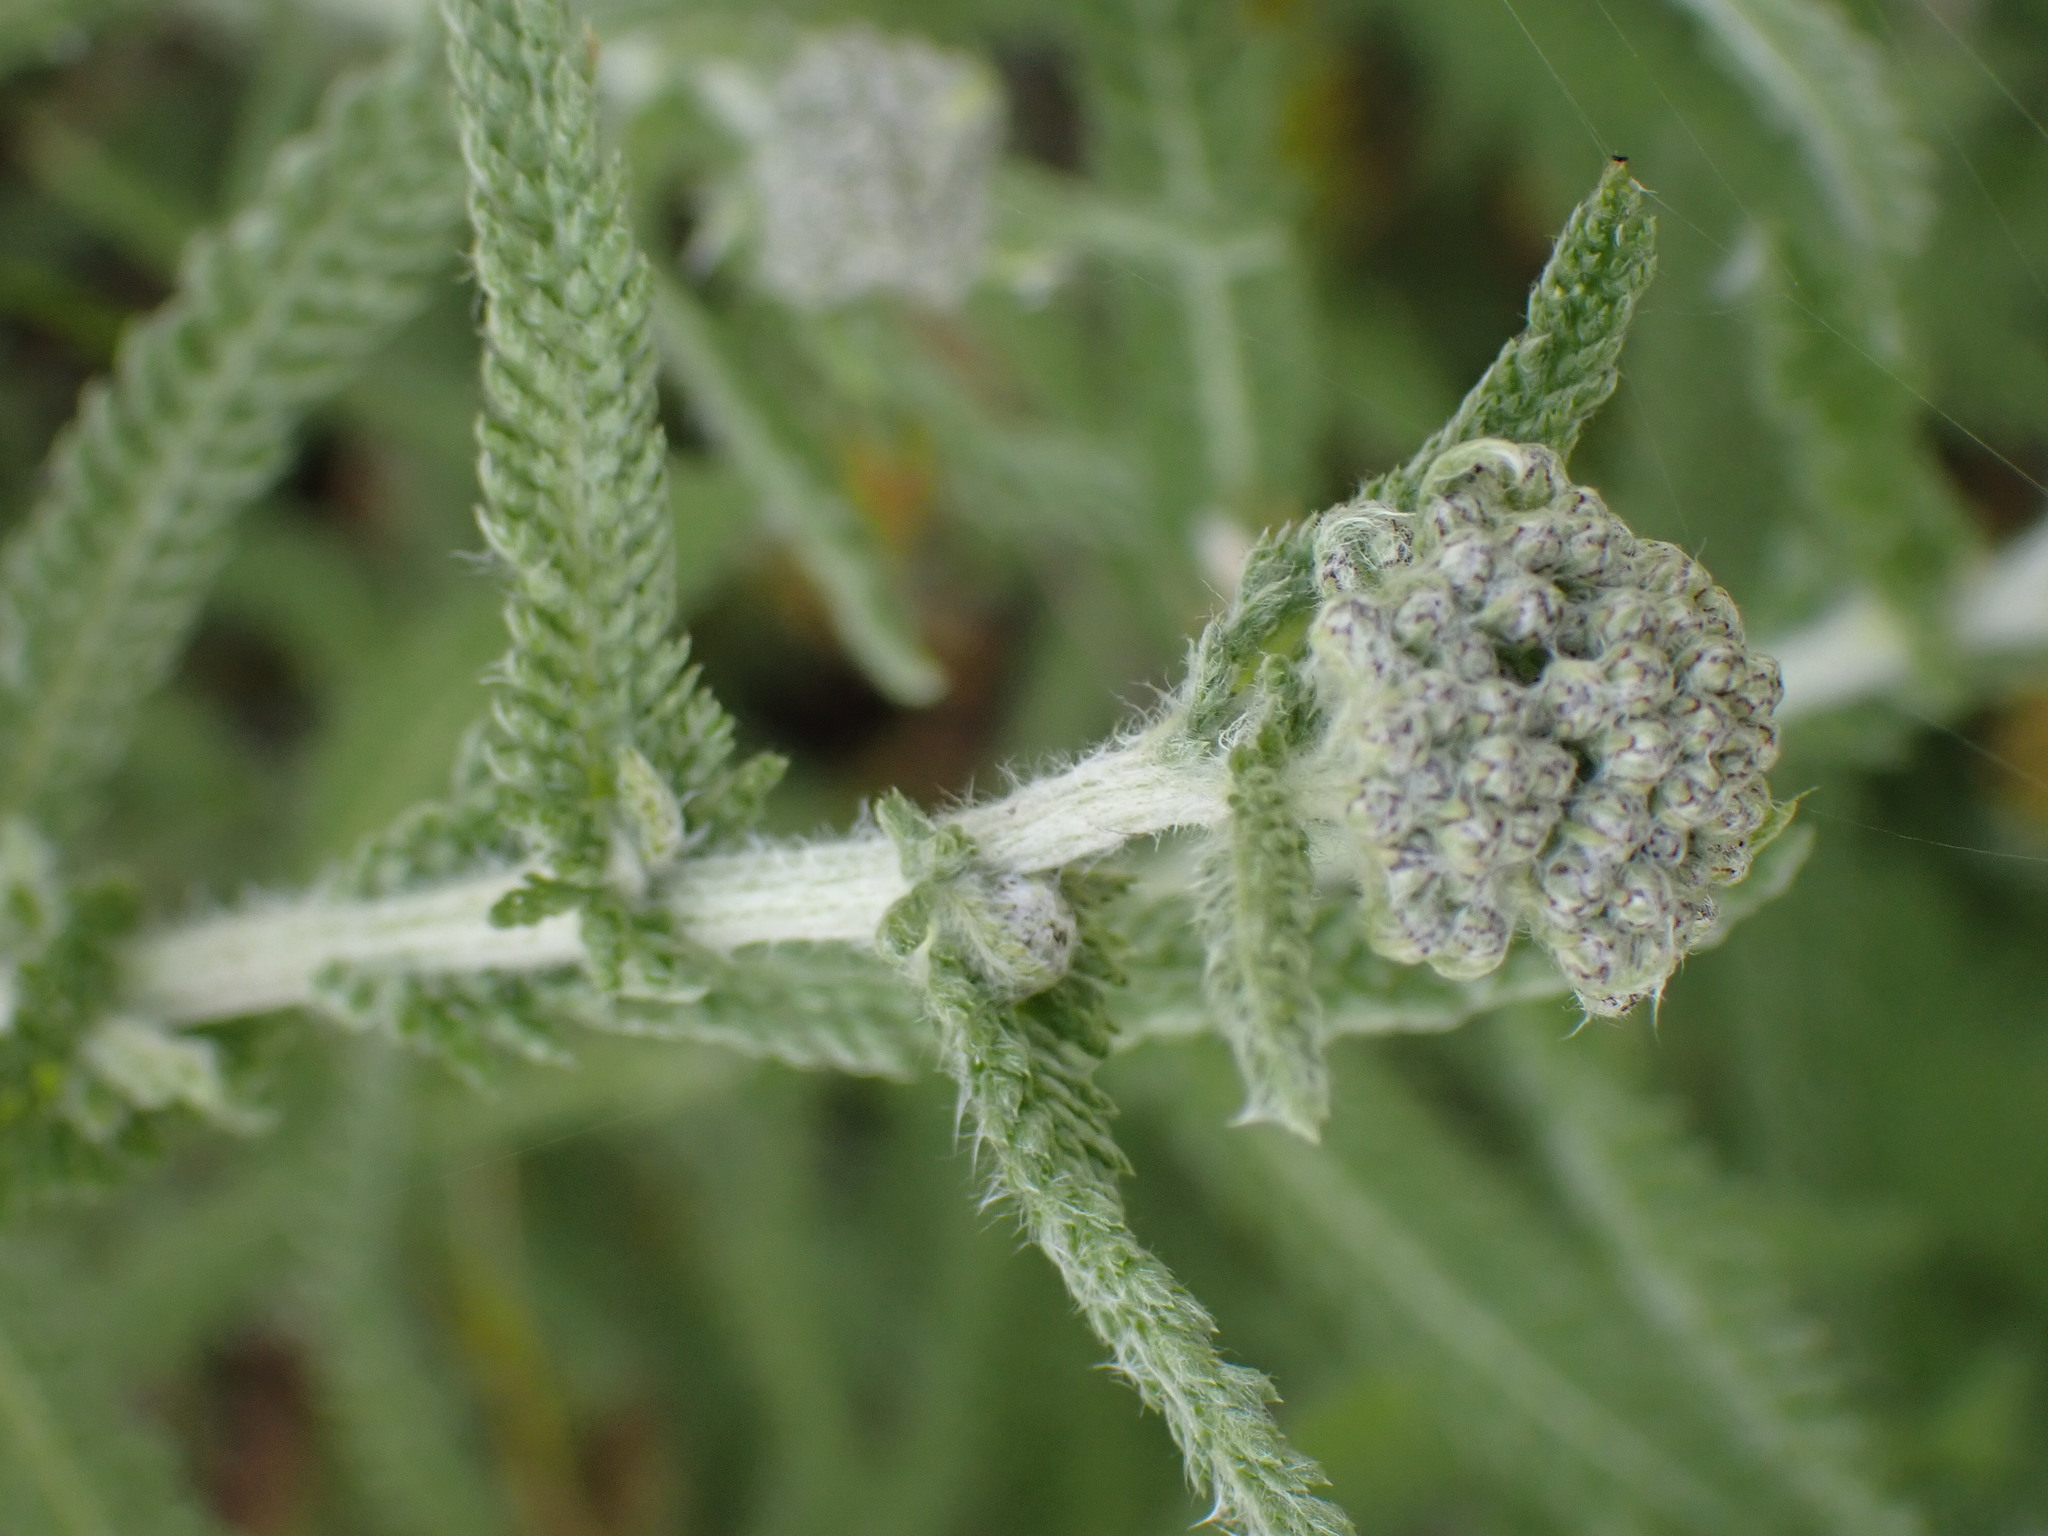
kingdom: Plantae
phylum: Tracheophyta
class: Magnoliopsida
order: Asterales
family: Asteraceae
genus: Achillea
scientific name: Achillea millefolium
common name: Yarrow
